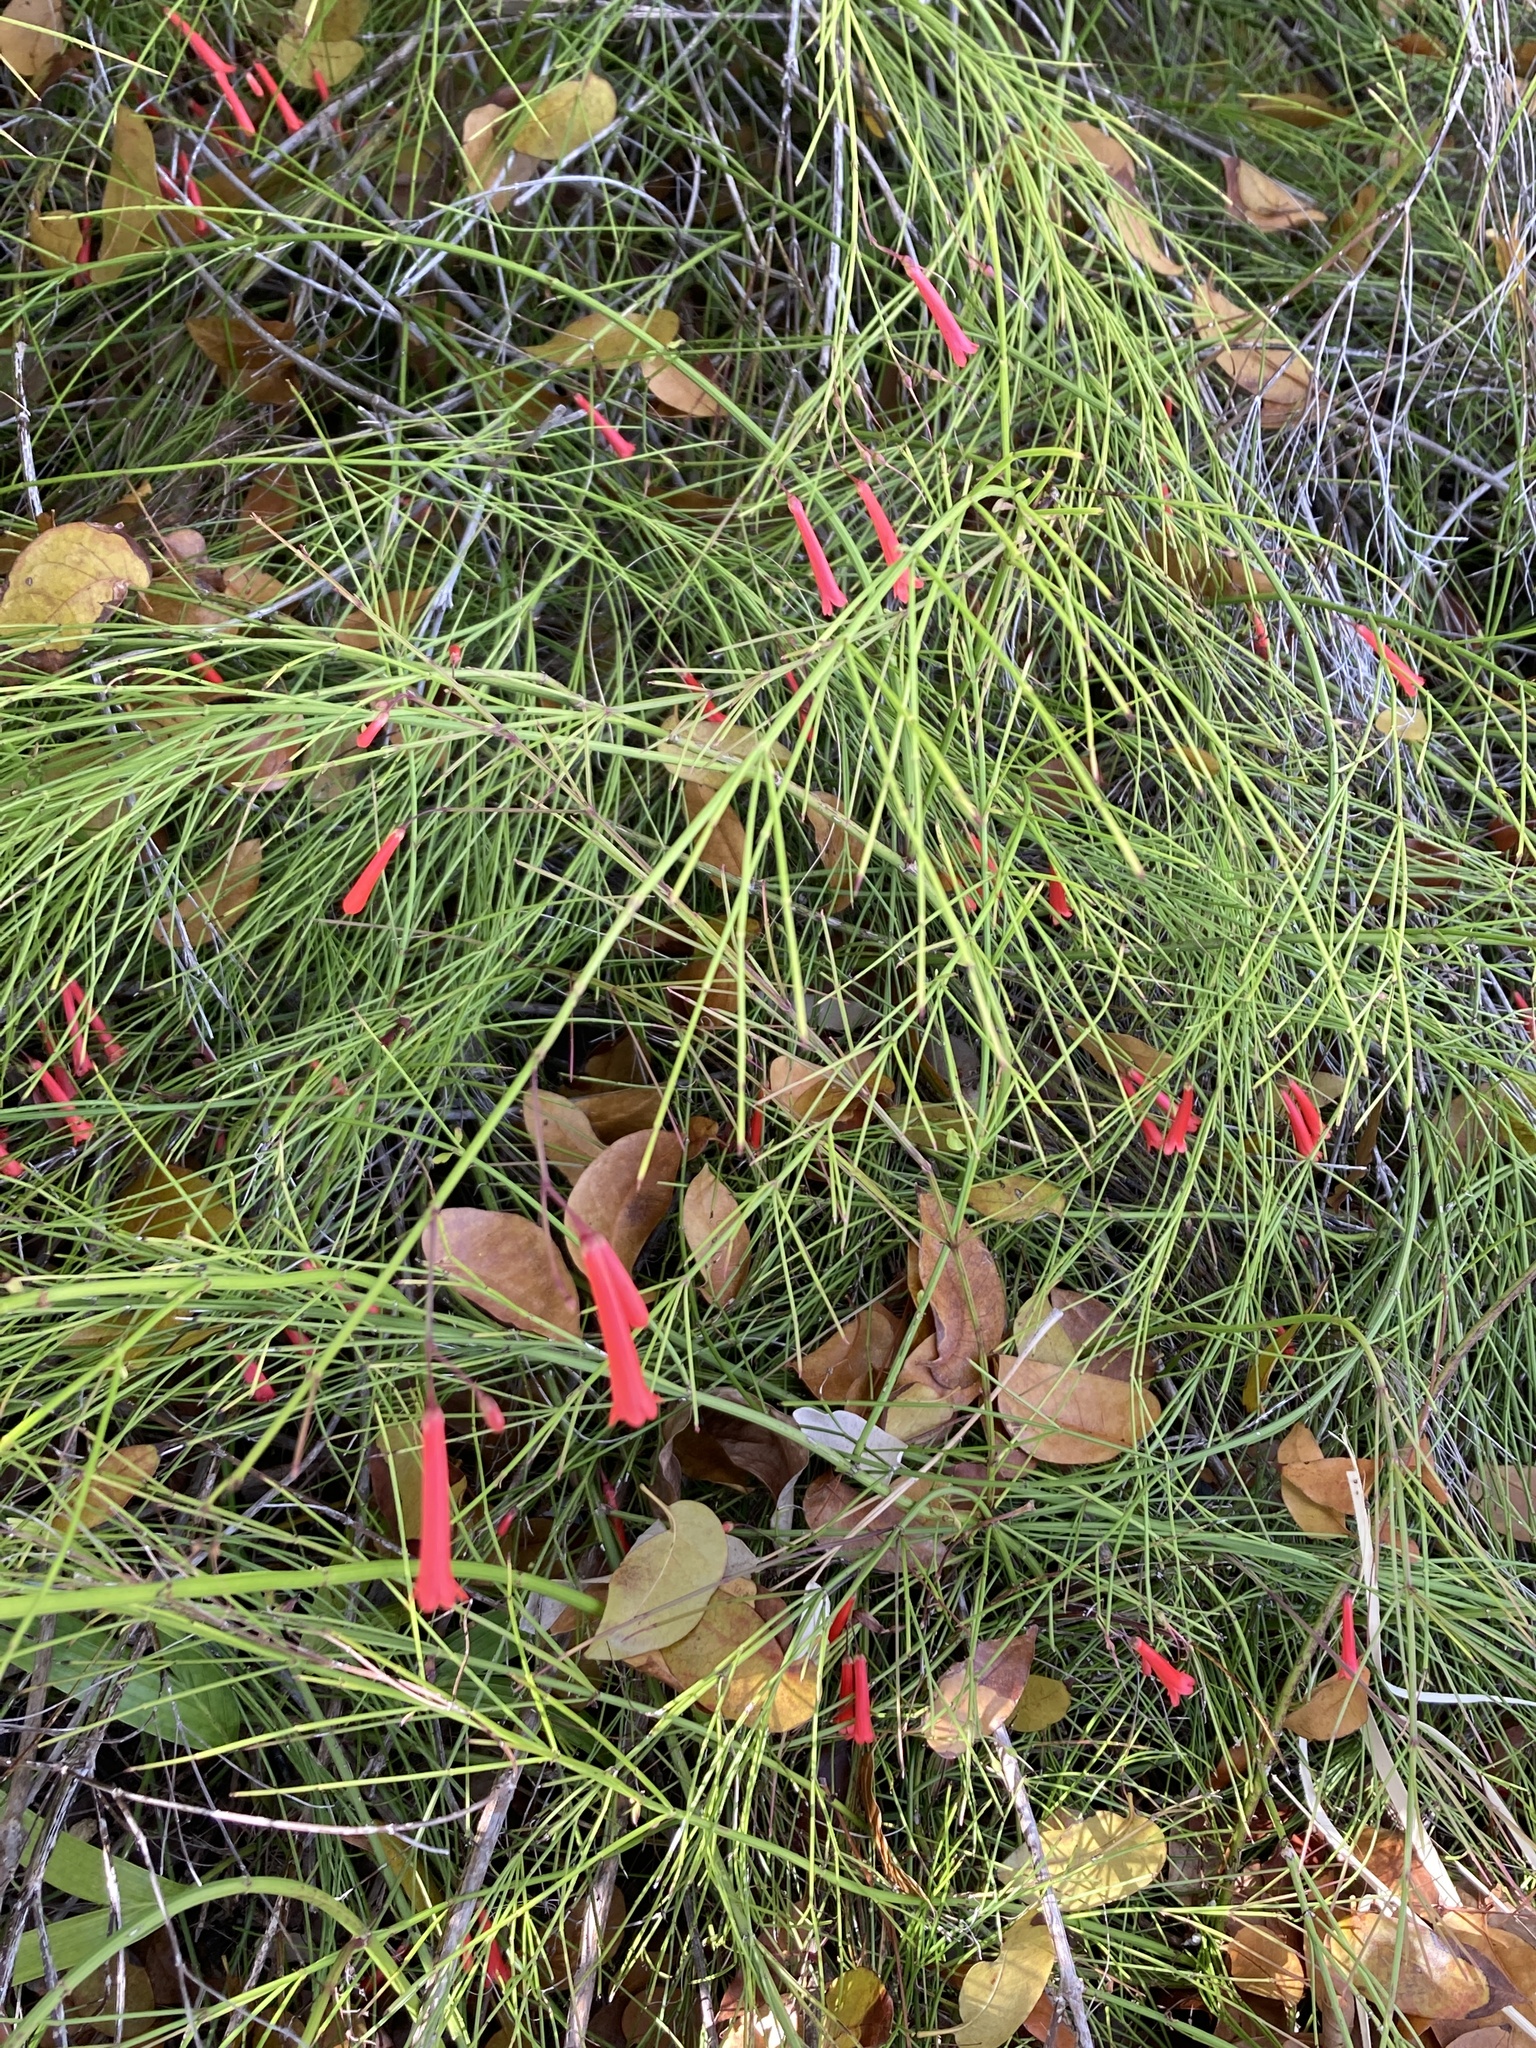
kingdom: Plantae
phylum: Tracheophyta
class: Magnoliopsida
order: Lamiales
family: Plantaginaceae
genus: Russelia
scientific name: Russelia equisetiformis
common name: Fountainbush
